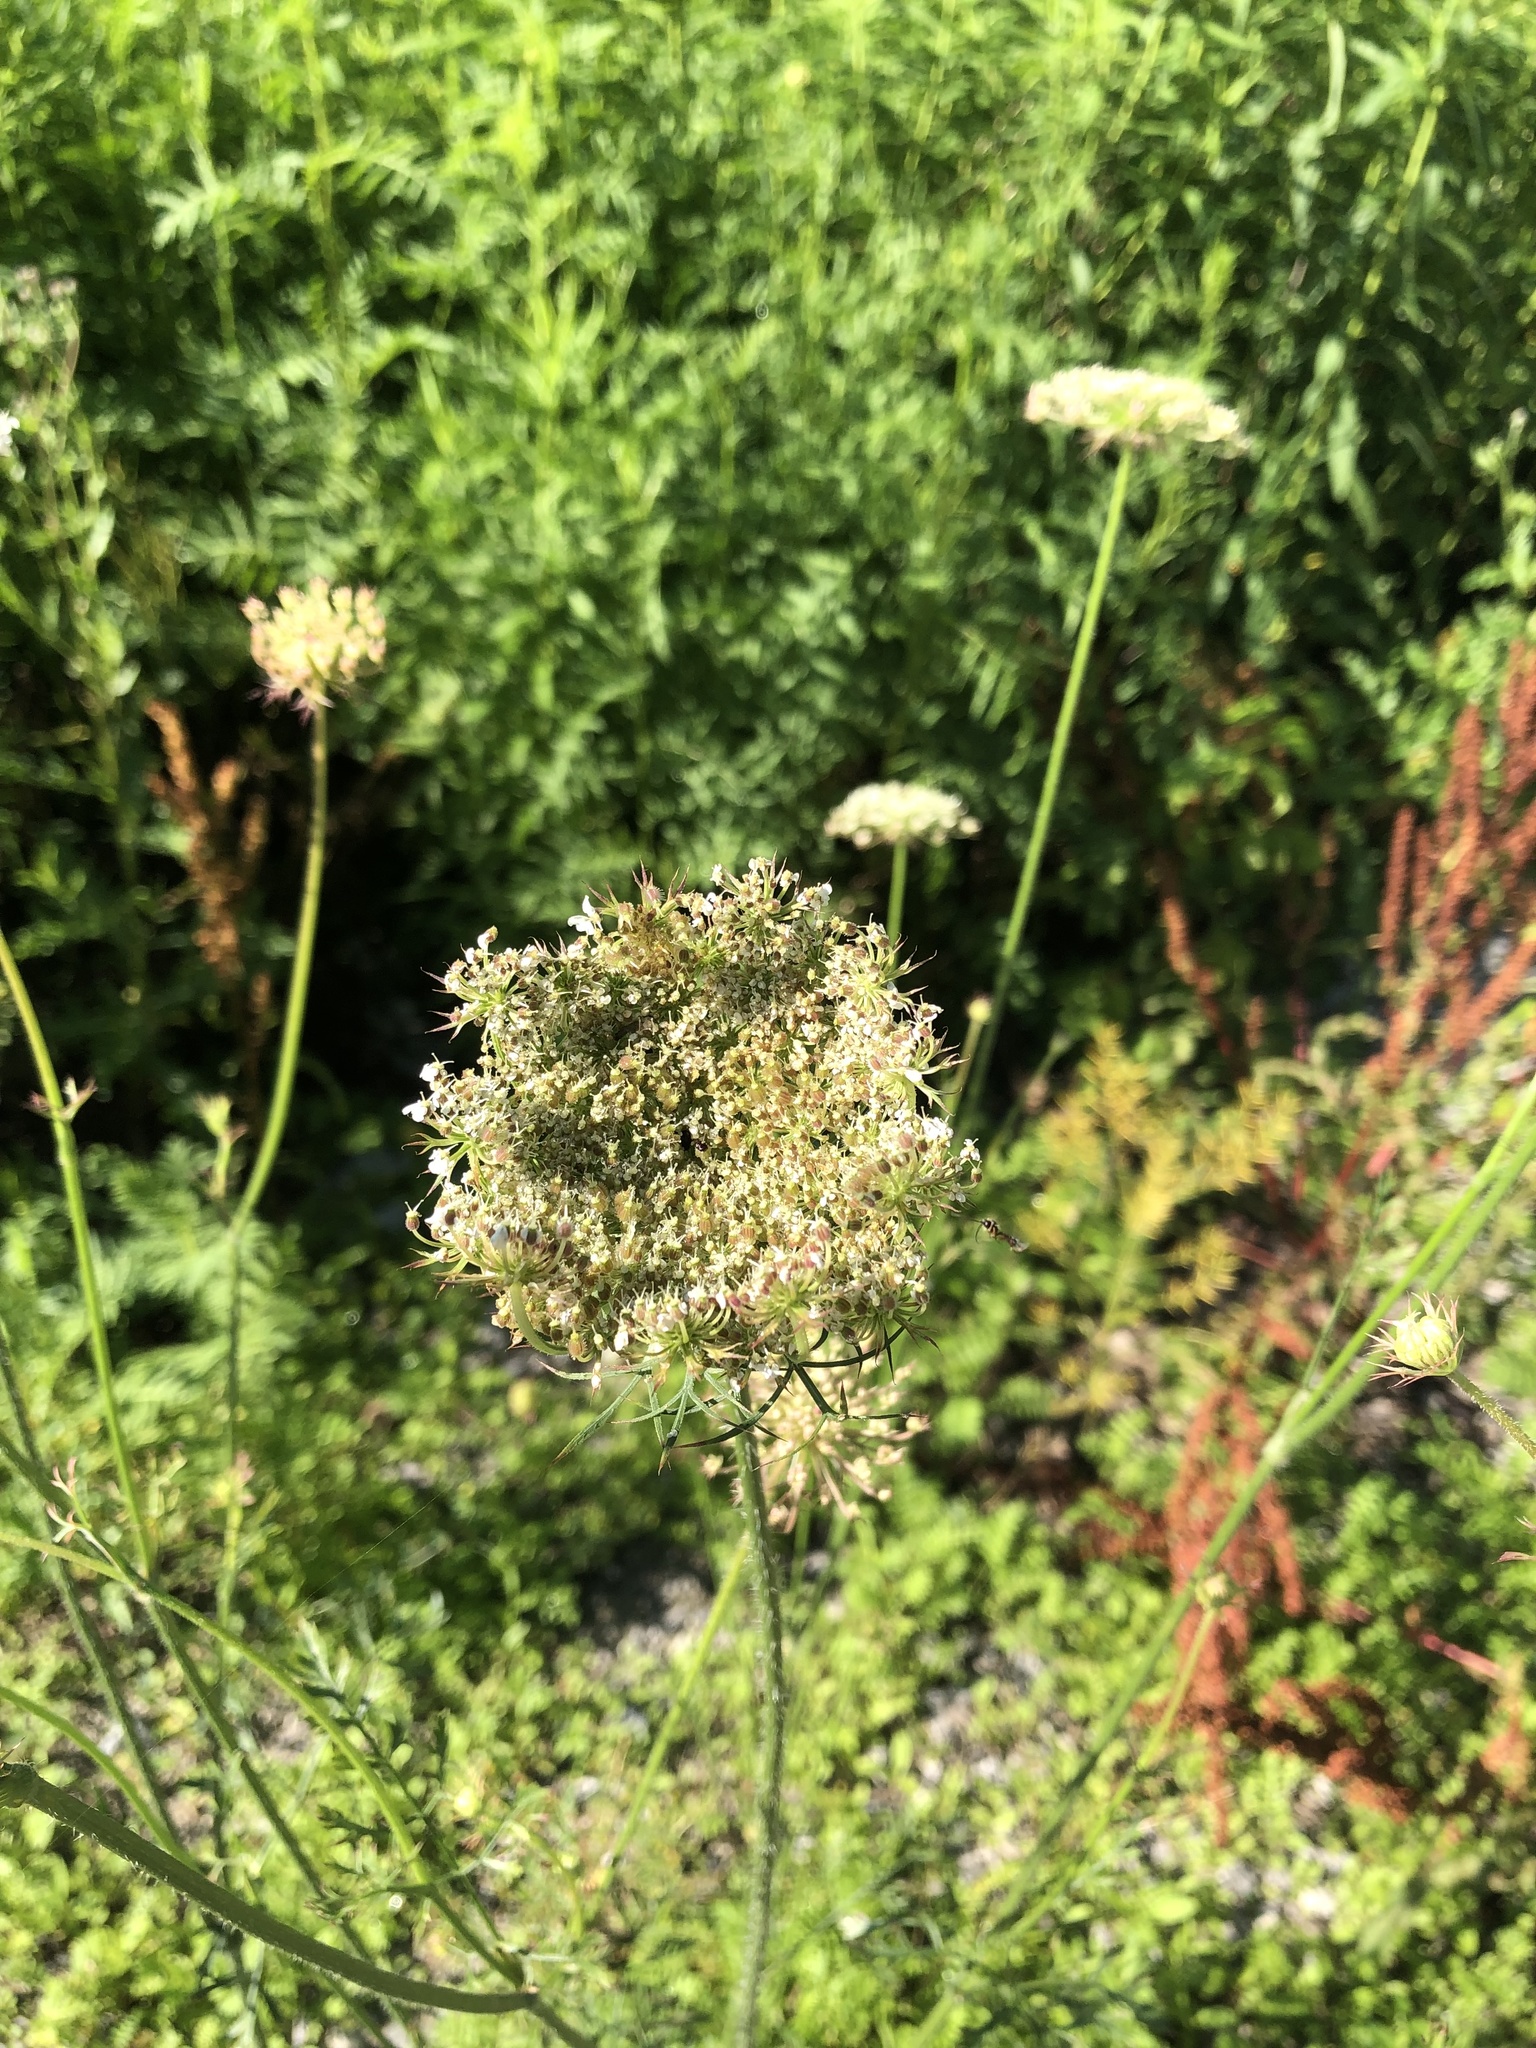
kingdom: Plantae
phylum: Tracheophyta
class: Magnoliopsida
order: Apiales
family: Apiaceae
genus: Daucus
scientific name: Daucus carota
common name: Wild carrot
